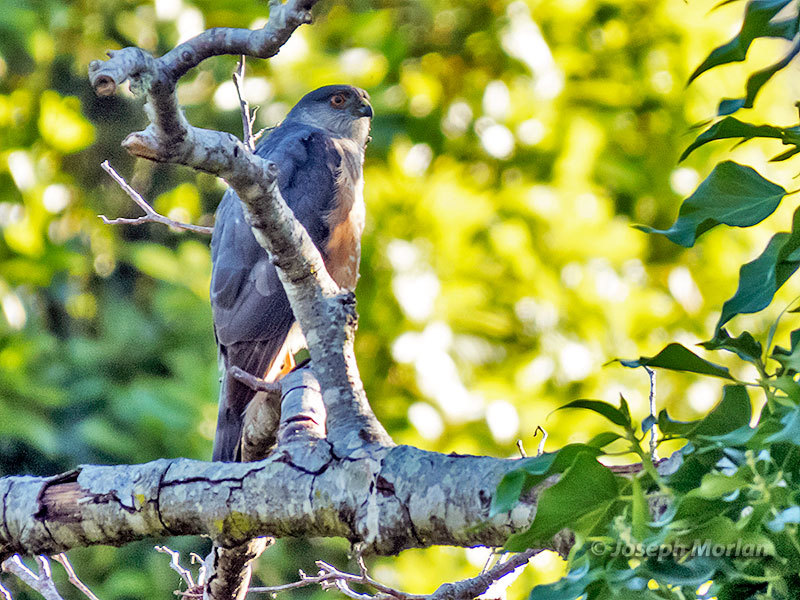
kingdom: Animalia
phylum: Chordata
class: Aves
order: Accipitriformes
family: Accipitridae
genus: Accipiter
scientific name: Accipiter striatus
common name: Sharp-shinned hawk
